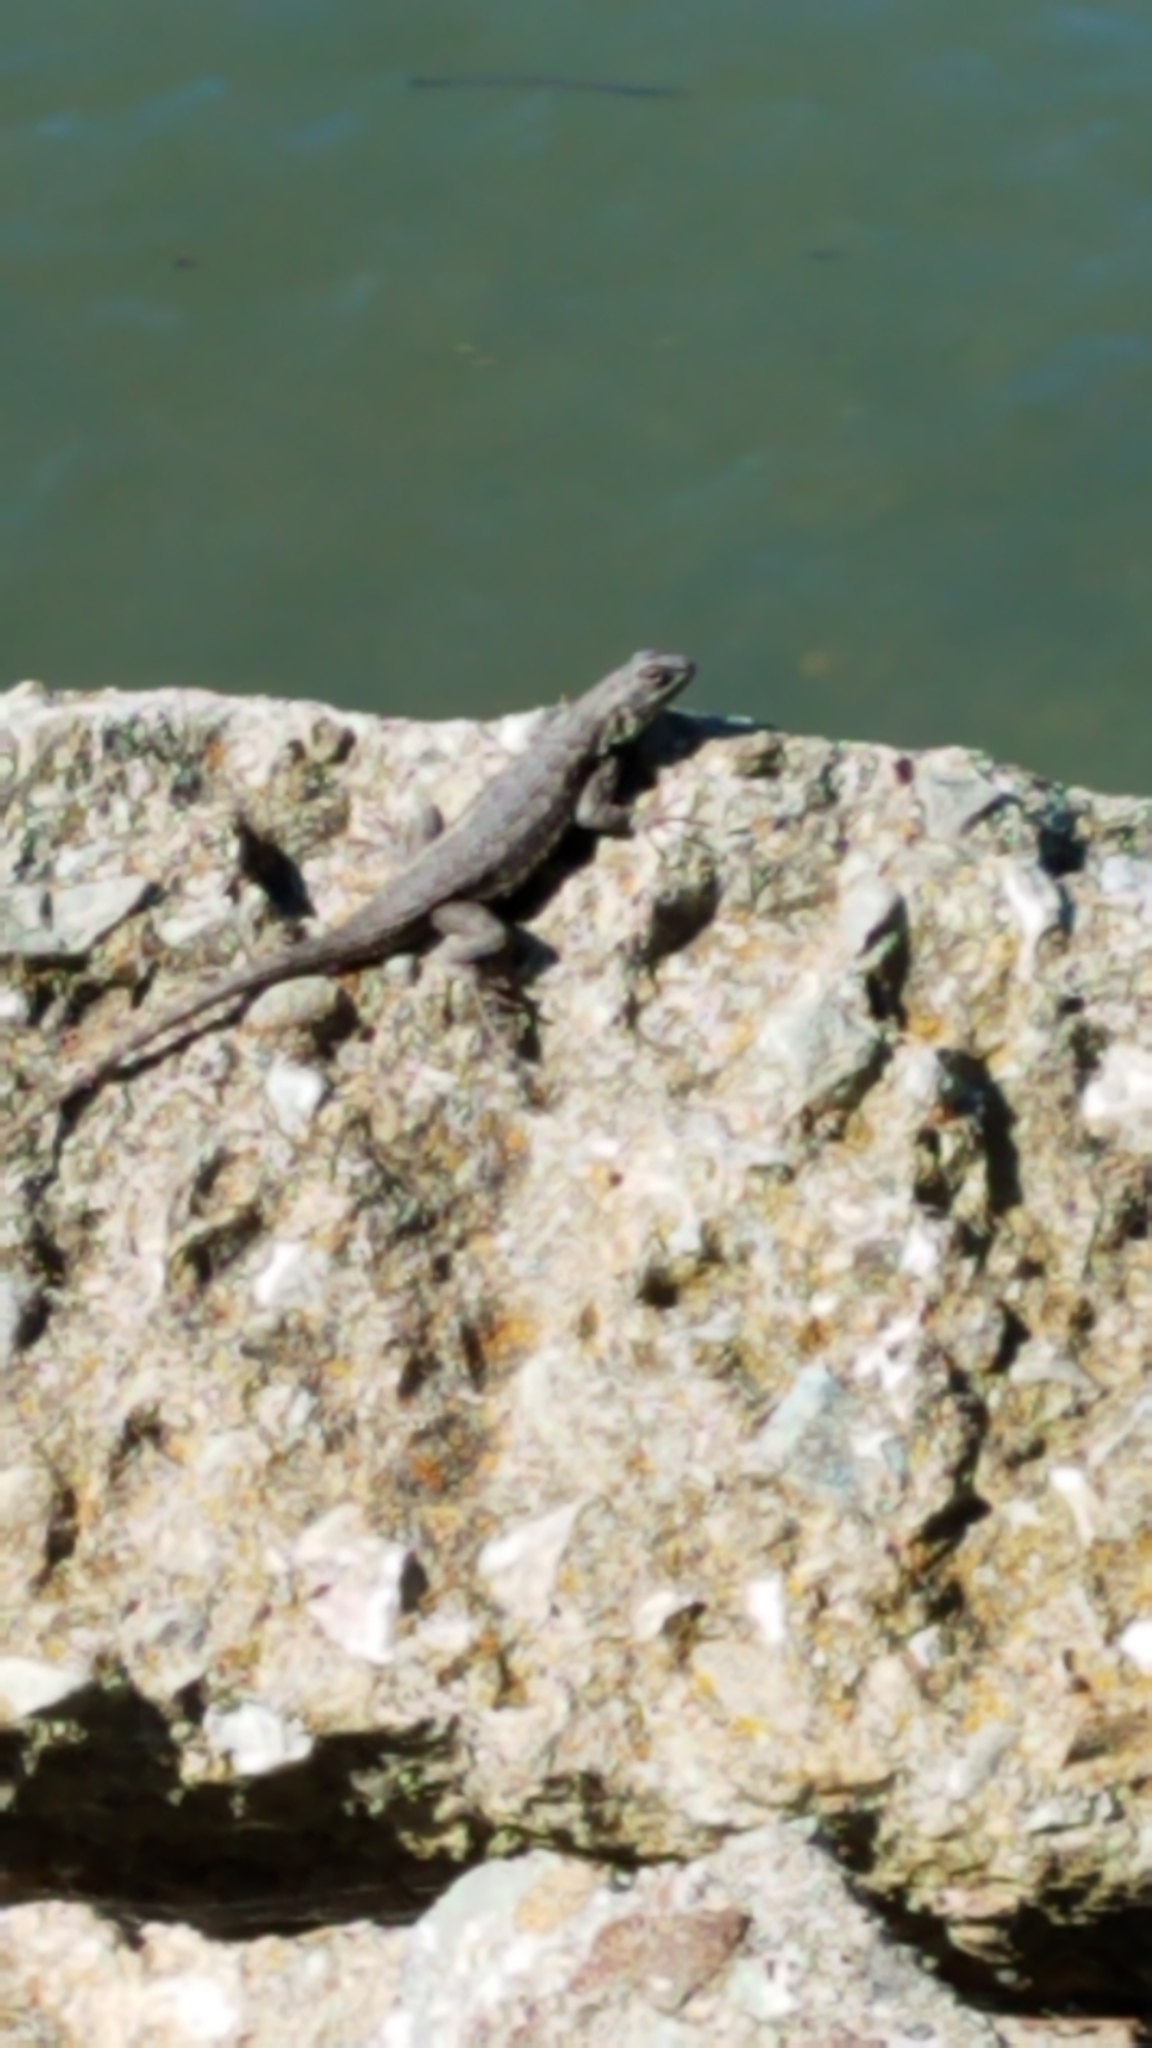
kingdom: Animalia
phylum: Chordata
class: Squamata
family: Phrynosomatidae
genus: Sceloporus
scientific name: Sceloporus occidentalis
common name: Western fence lizard
